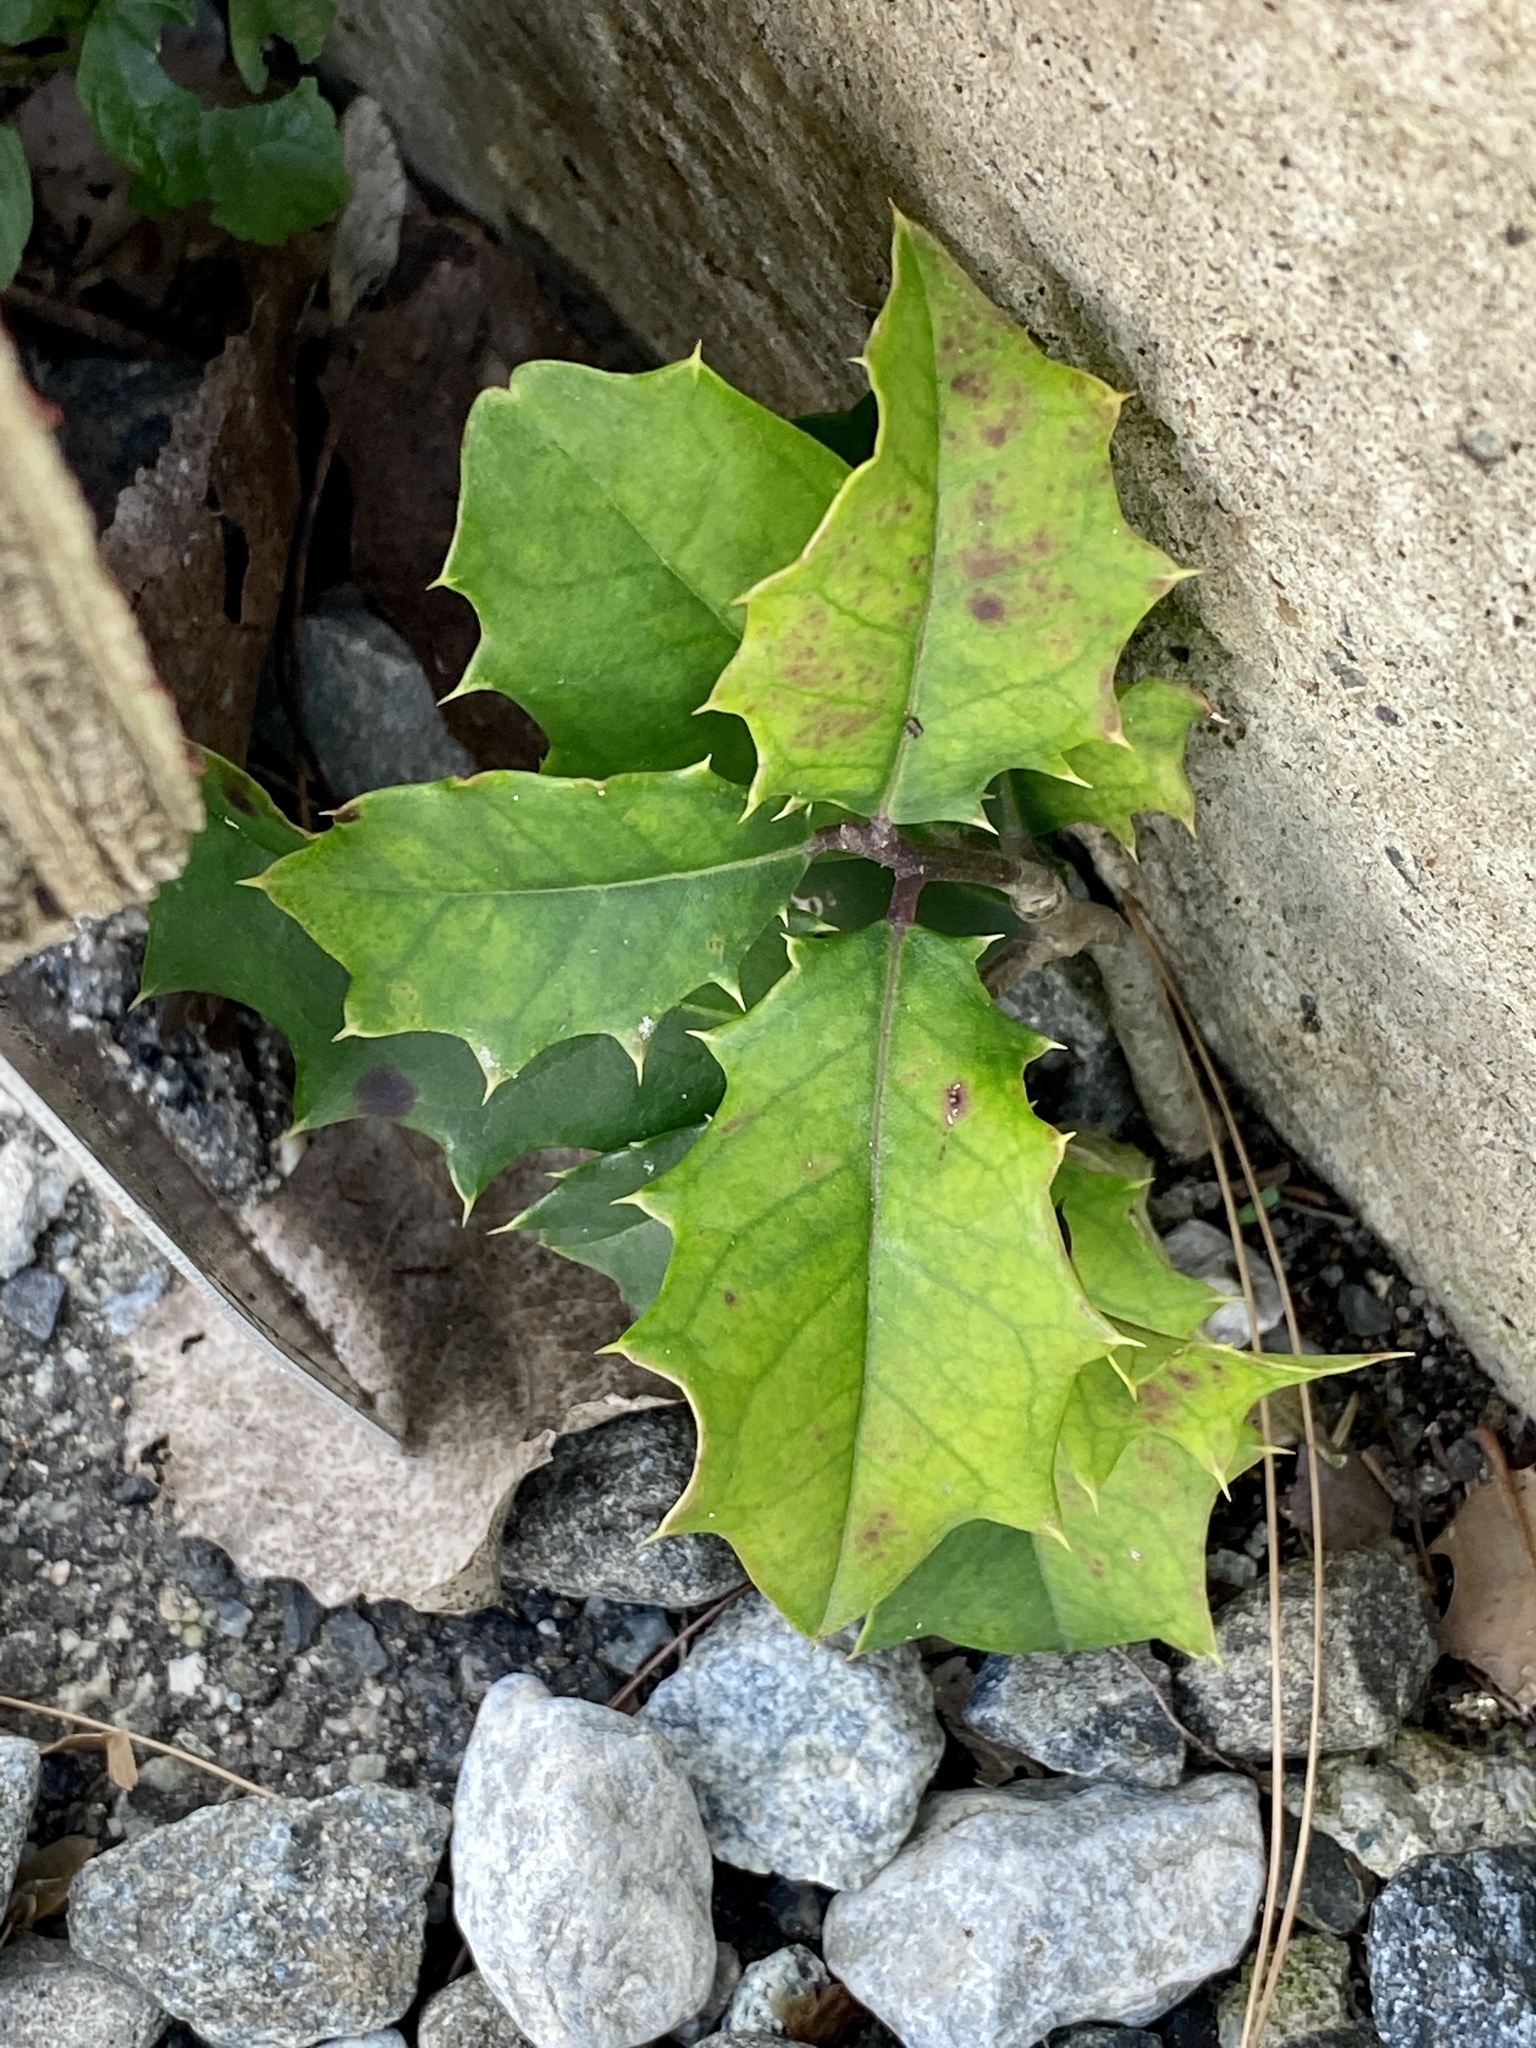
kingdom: Plantae
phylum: Tracheophyta
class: Magnoliopsida
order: Aquifoliales
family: Aquifoliaceae
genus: Ilex
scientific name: Ilex opaca
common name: American holly
